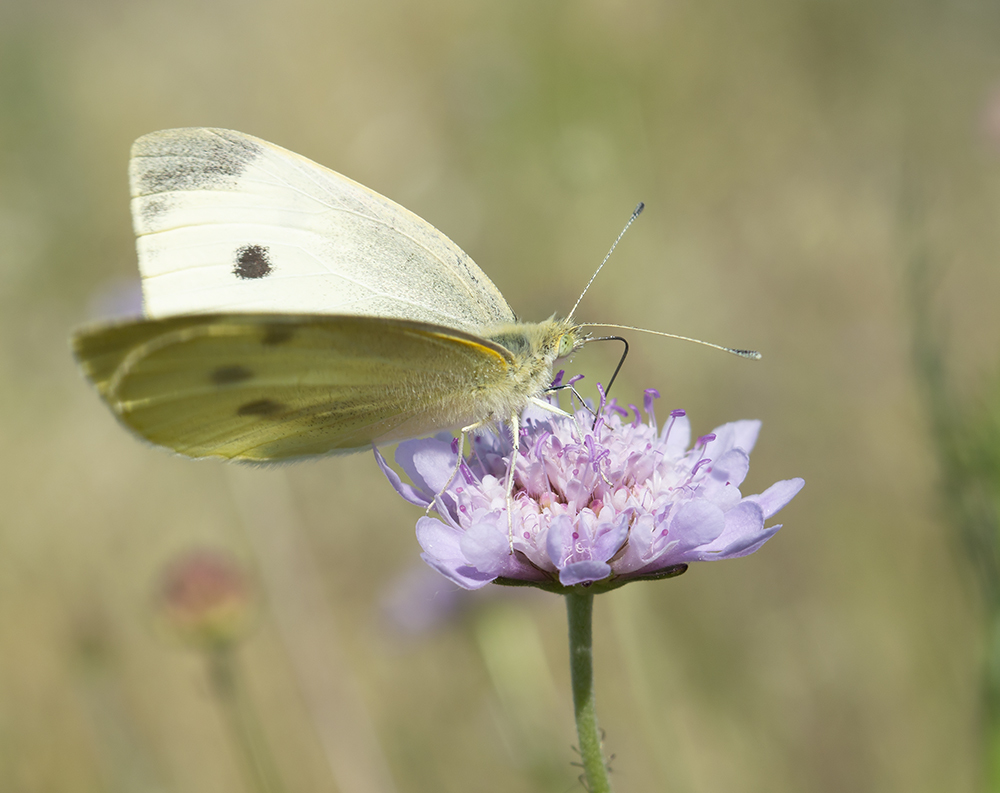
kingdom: Animalia
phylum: Arthropoda
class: Insecta
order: Lepidoptera
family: Pieridae
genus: Pieris
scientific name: Pieris rapae
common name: Small white
